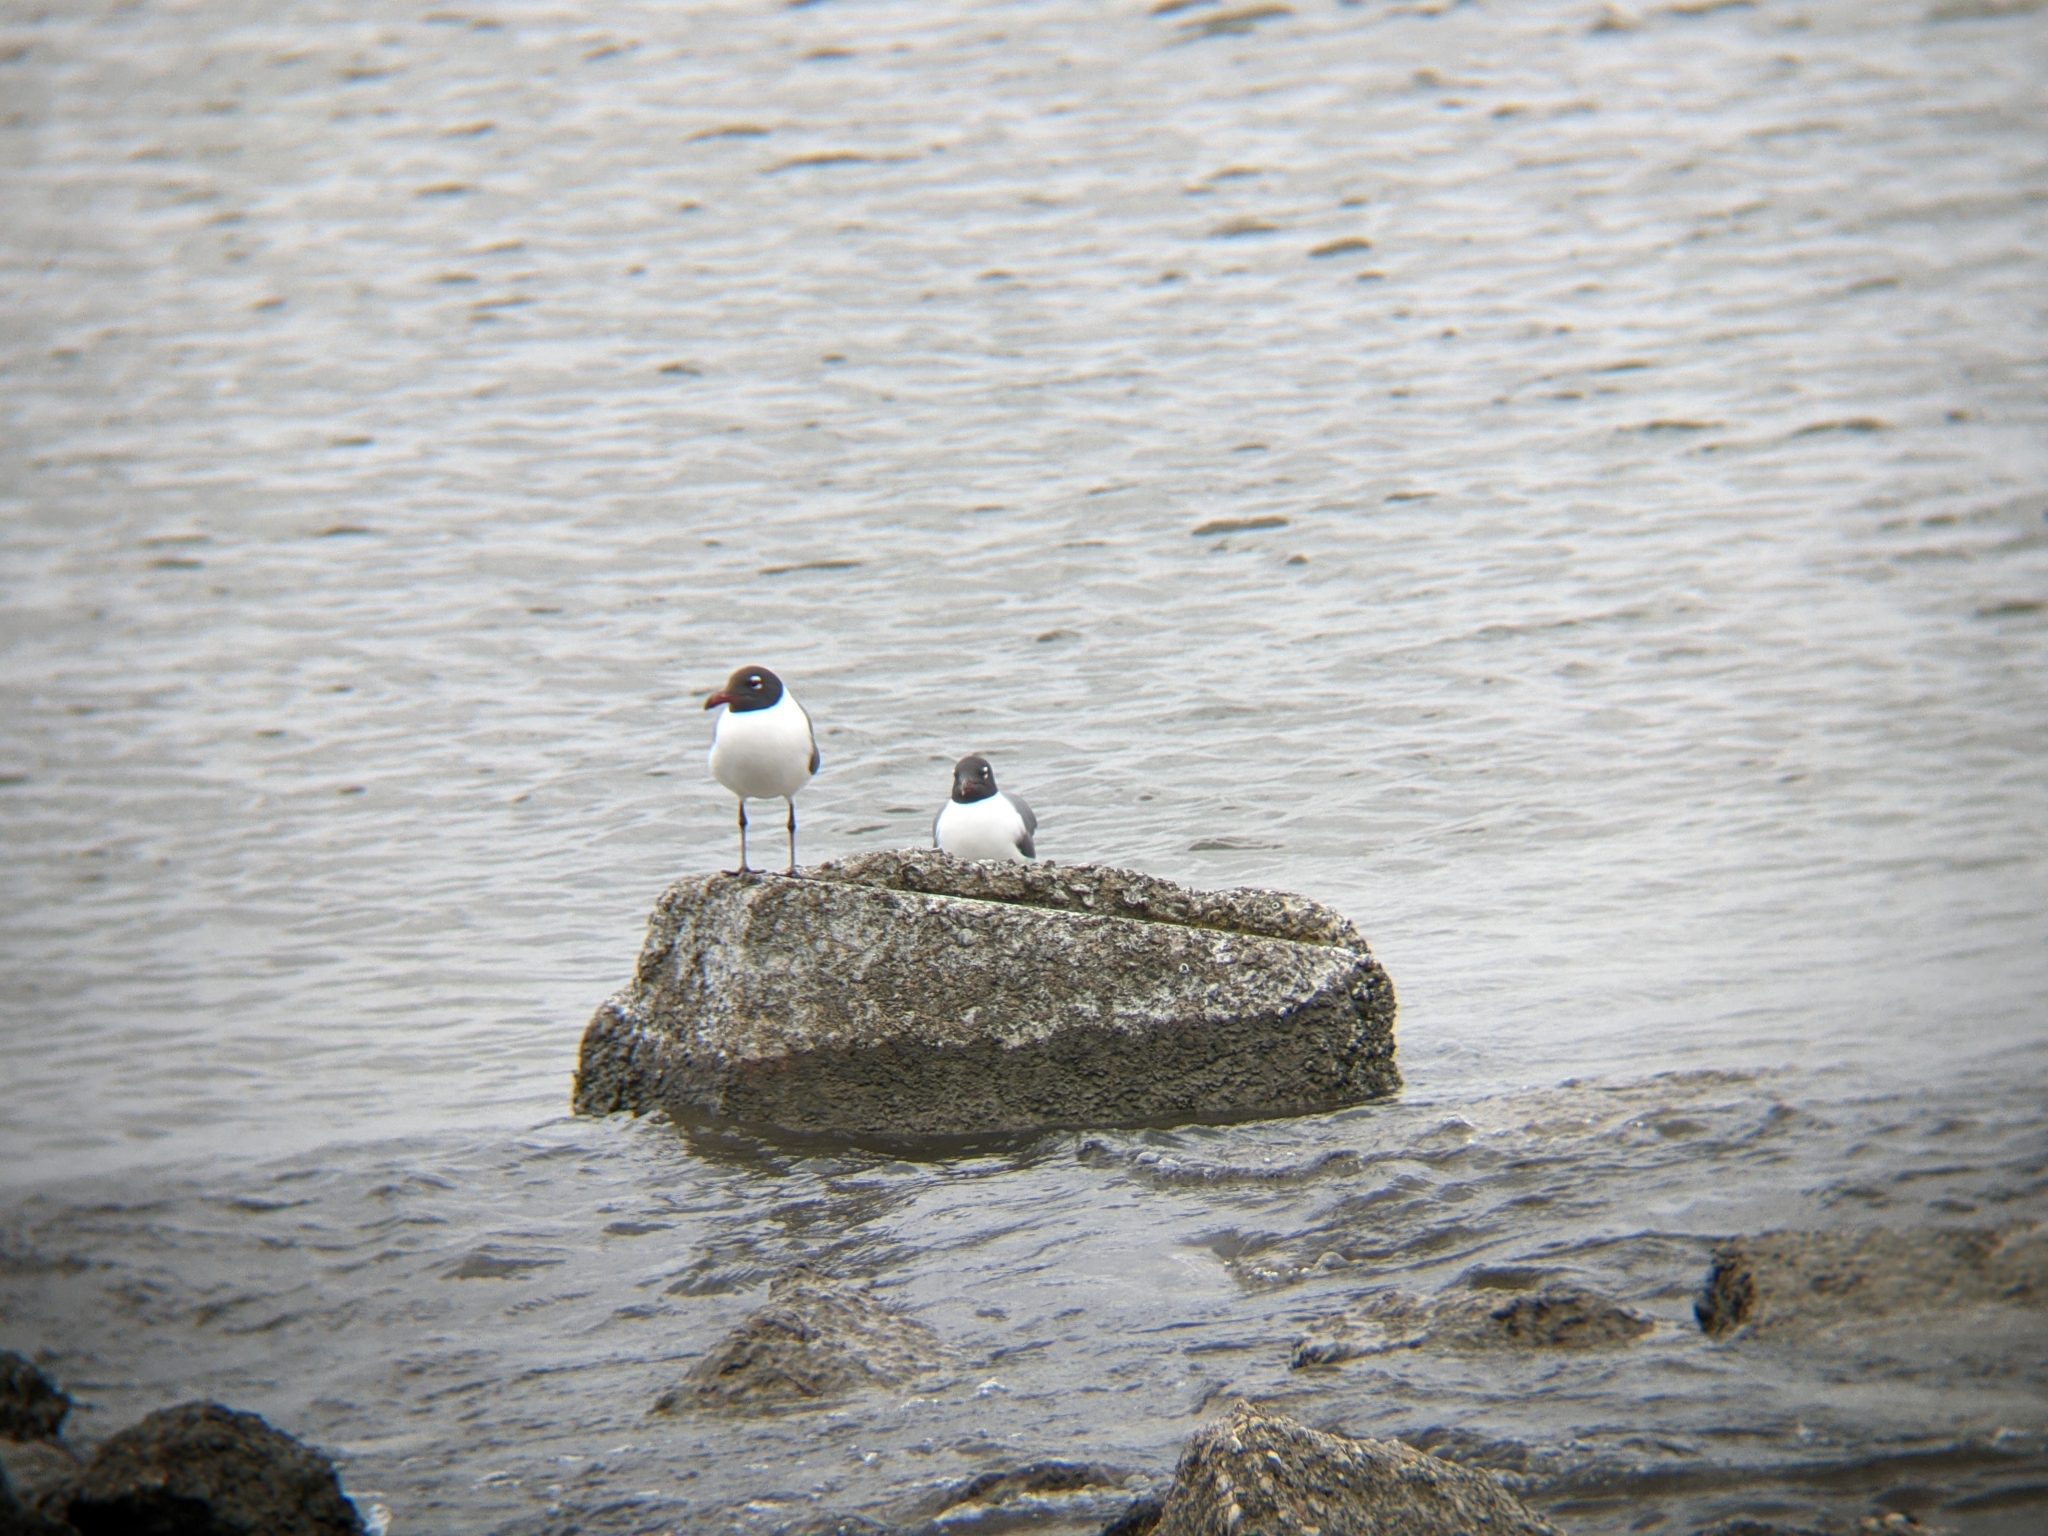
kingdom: Animalia
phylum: Chordata
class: Aves
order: Charadriiformes
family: Laridae
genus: Leucophaeus
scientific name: Leucophaeus atricilla
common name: Laughing gull
